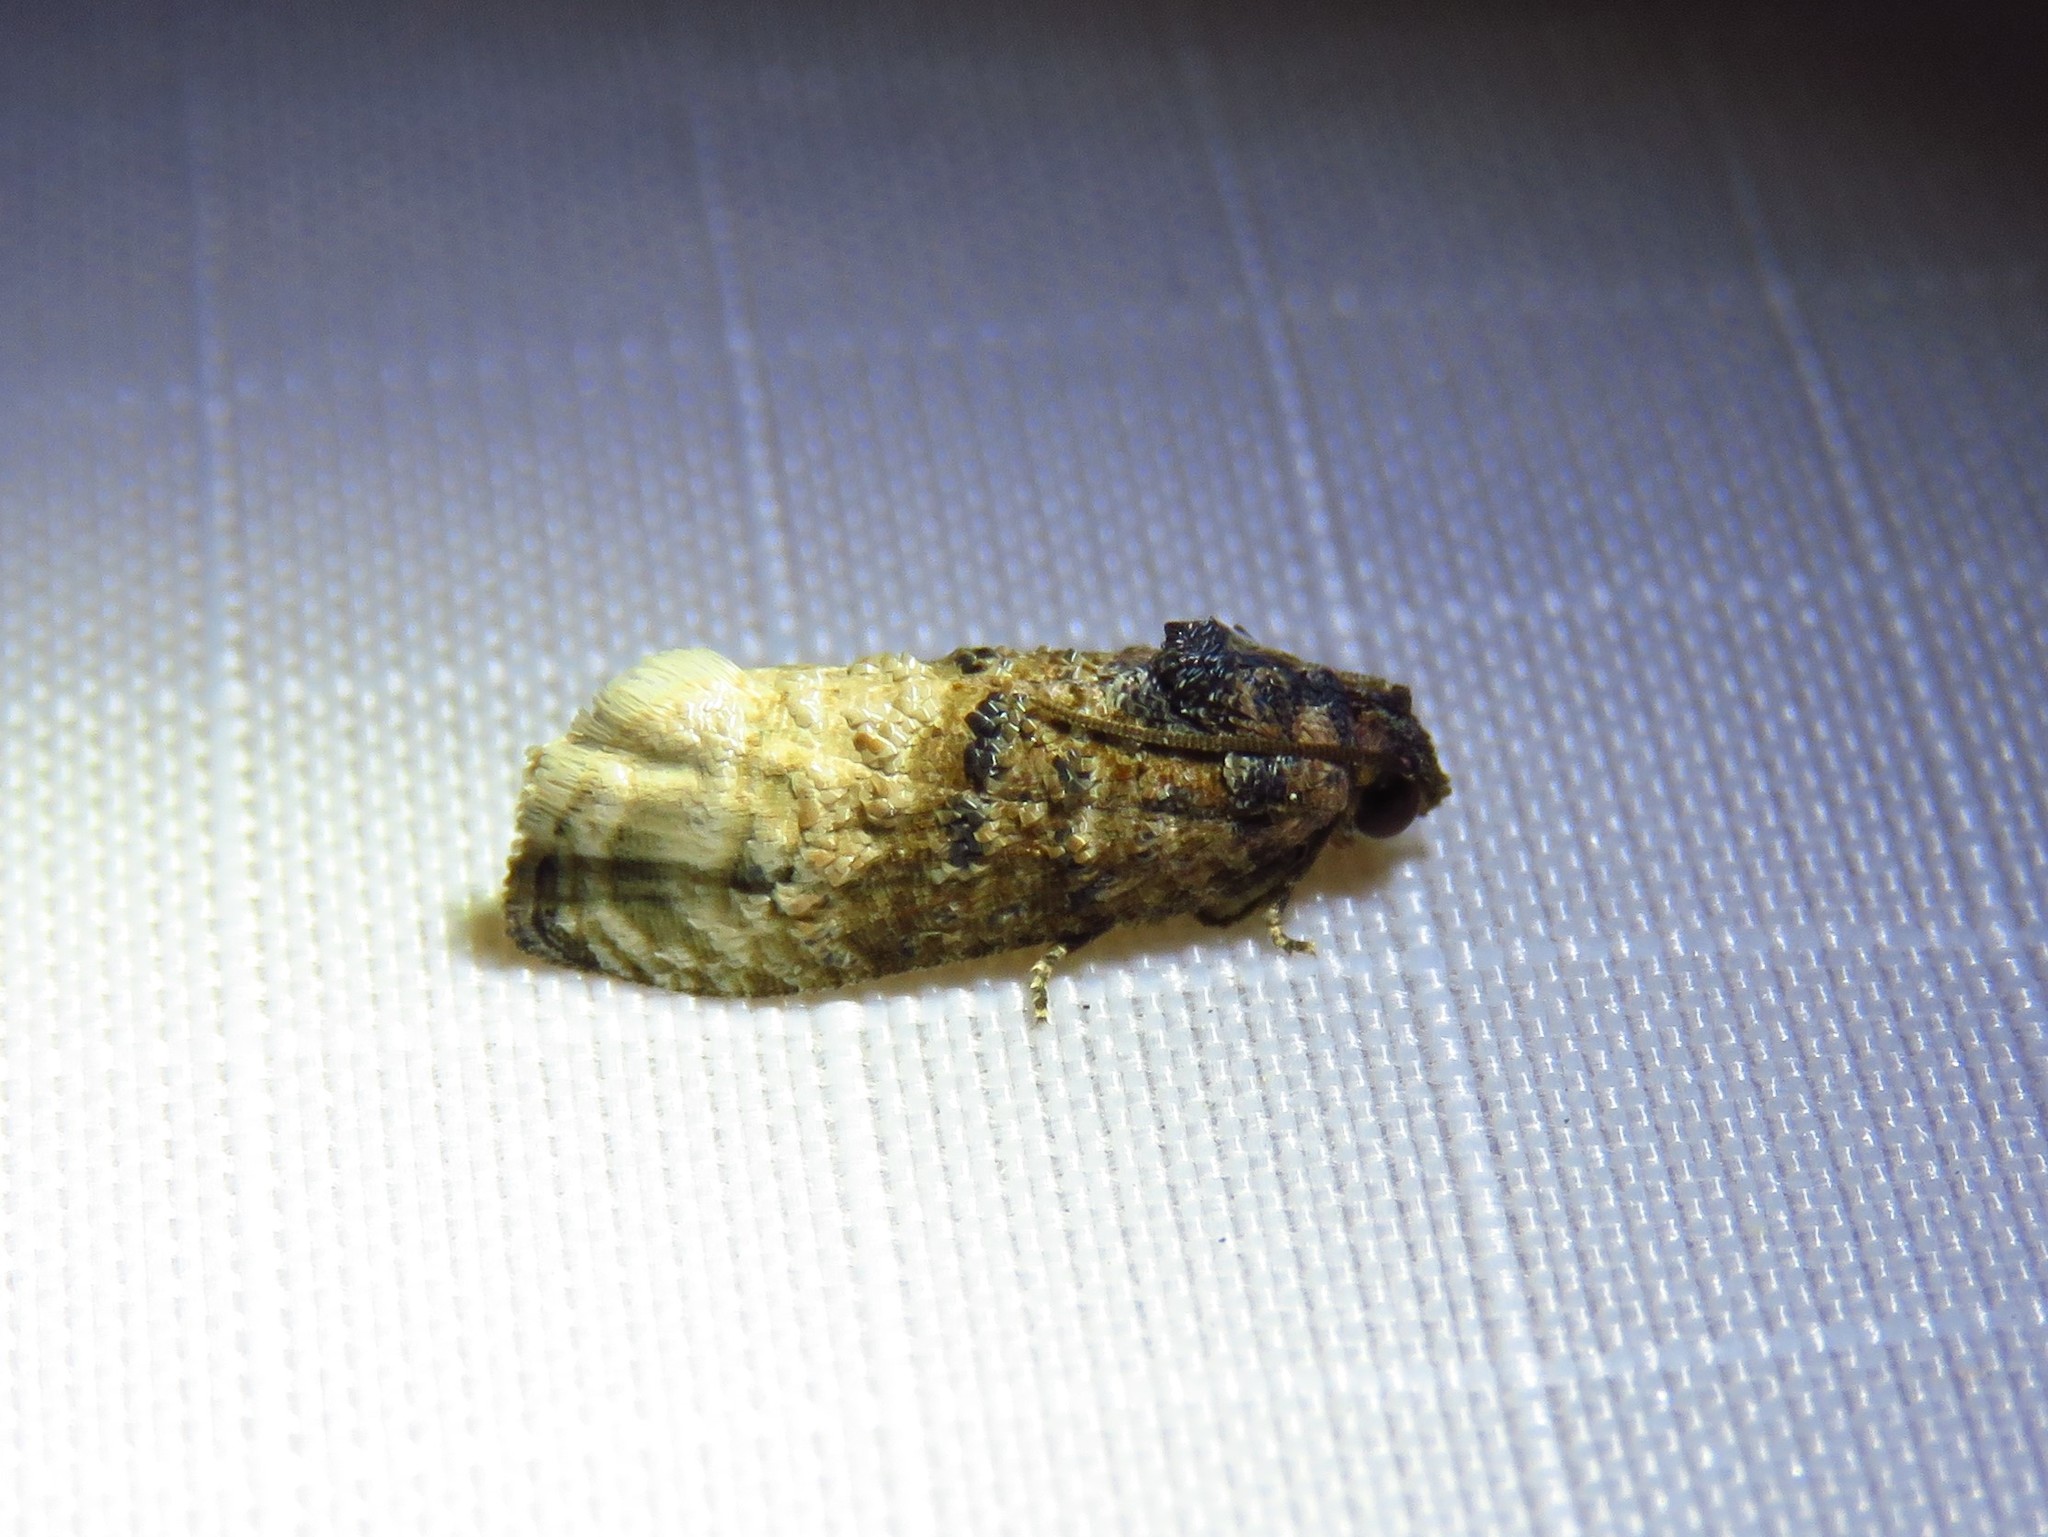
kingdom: Animalia
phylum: Arthropoda
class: Insecta
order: Lepidoptera
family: Tortricidae
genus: Ecdytolopha
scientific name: Ecdytolopha mana
